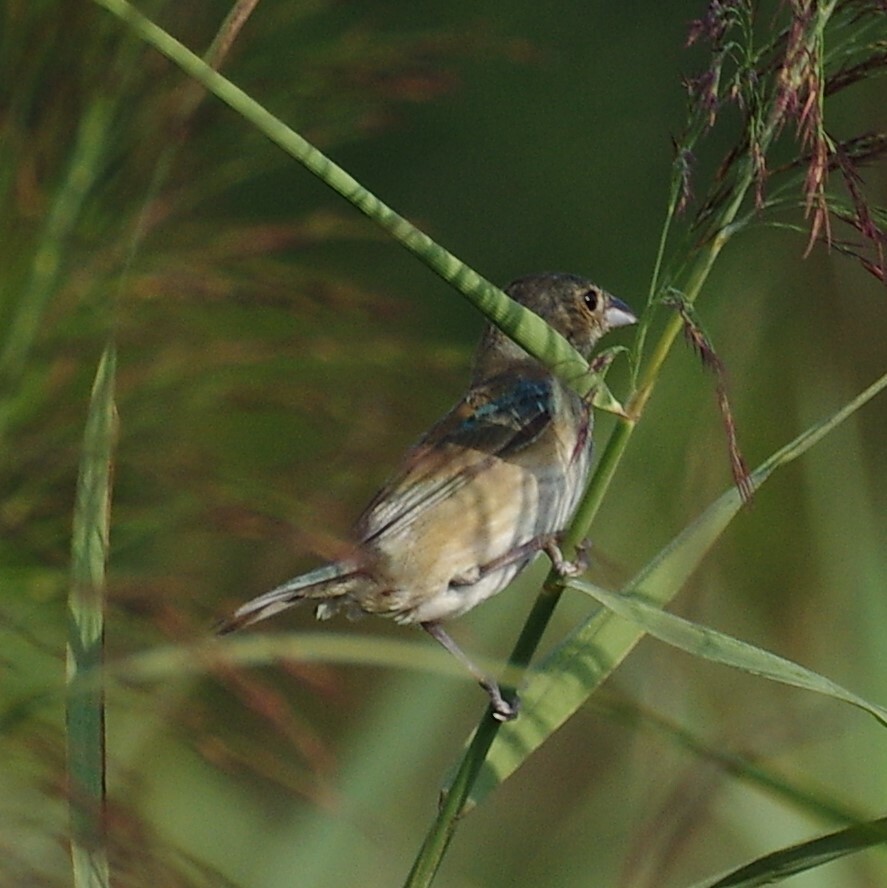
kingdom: Animalia
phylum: Chordata
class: Aves
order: Passeriformes
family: Cardinalidae
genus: Passerina
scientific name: Passerina cyanea
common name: Indigo bunting
